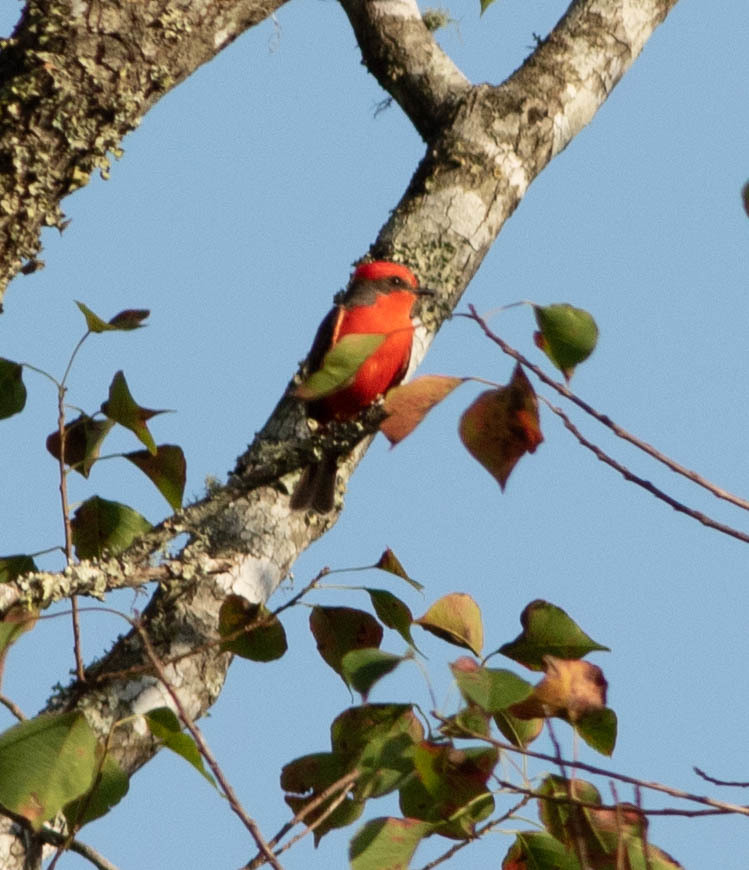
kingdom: Animalia
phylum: Chordata
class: Aves
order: Passeriformes
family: Tyrannidae
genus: Pyrocephalus
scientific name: Pyrocephalus rubinus
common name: Vermilion flycatcher
